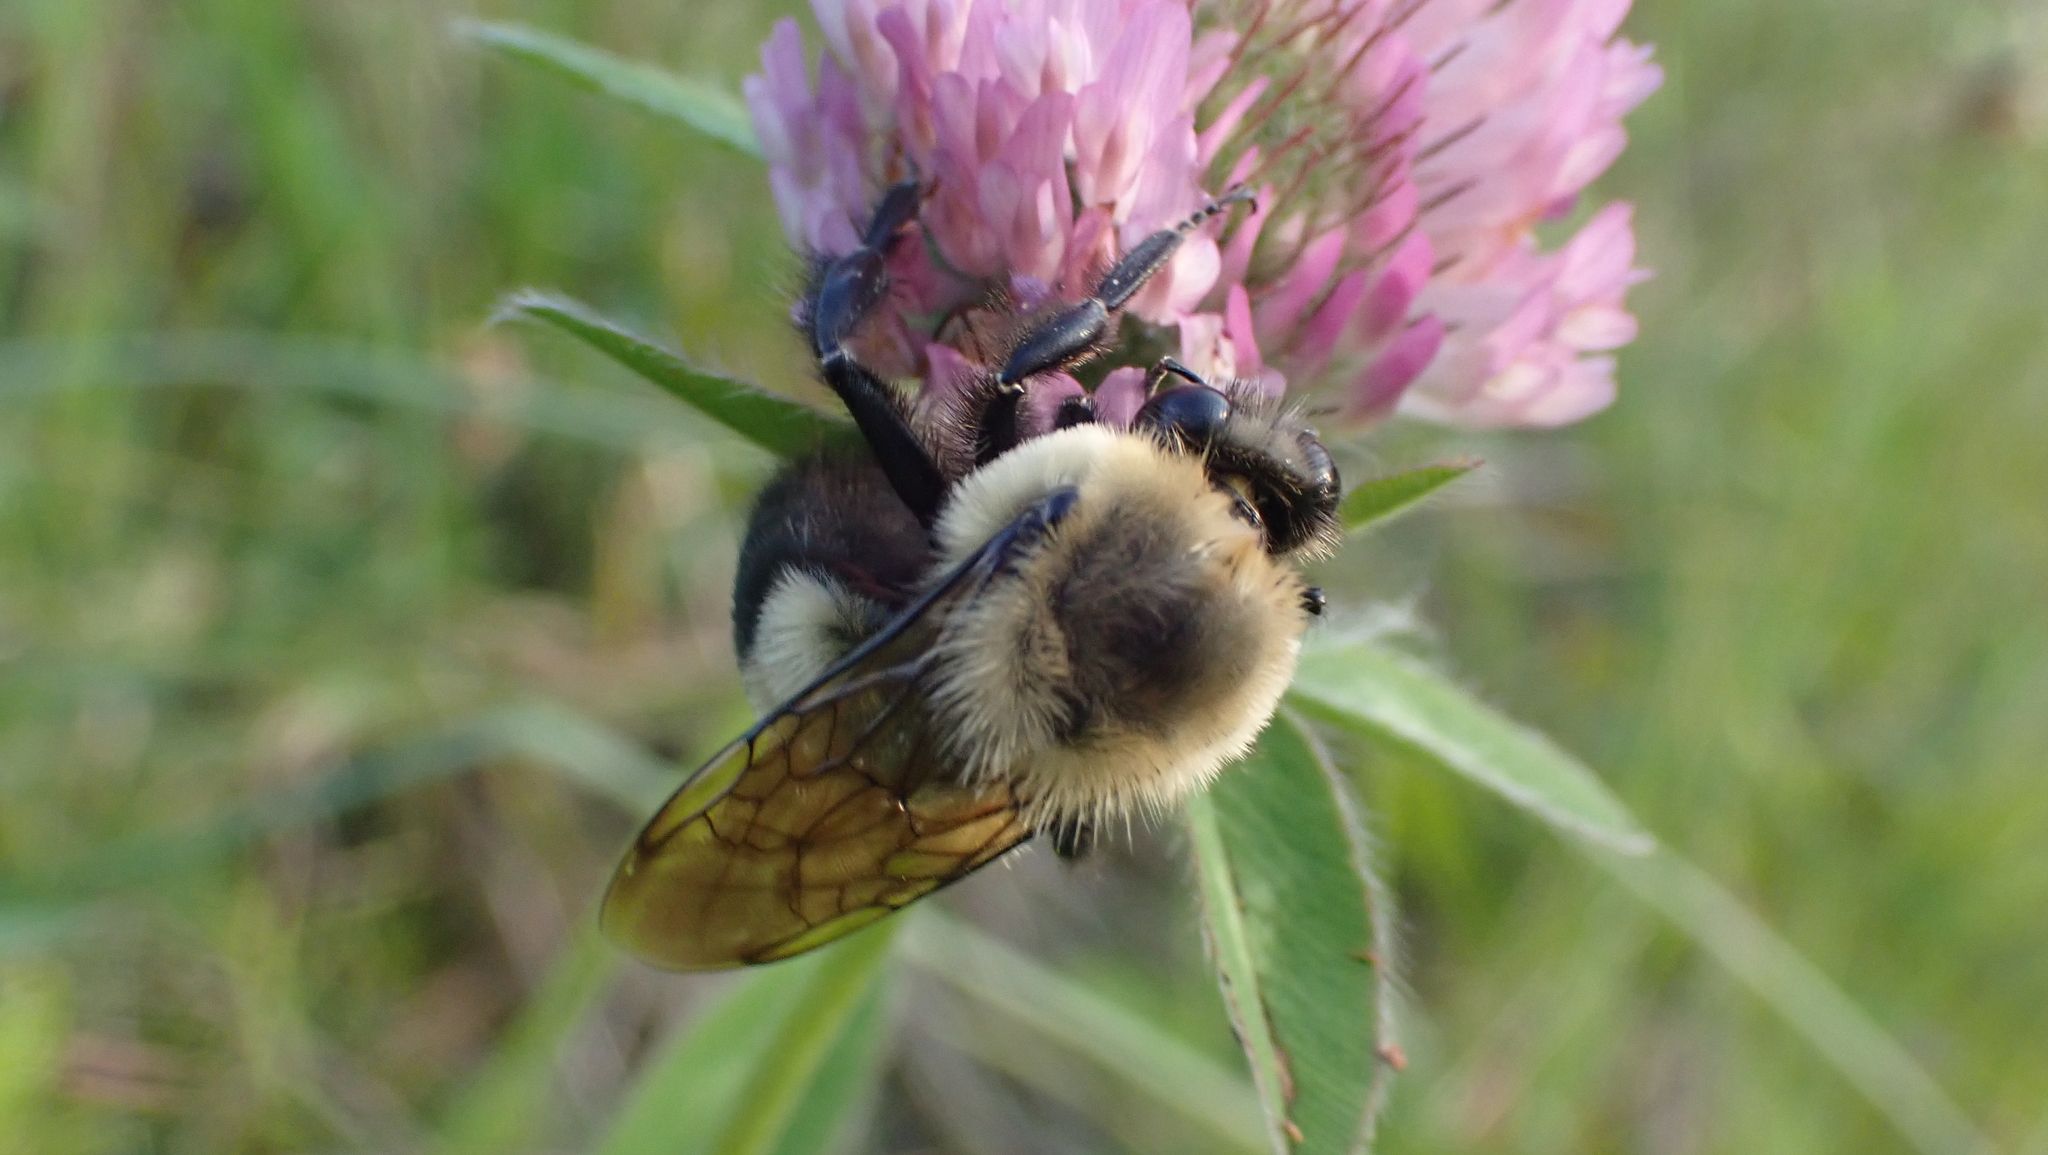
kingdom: Animalia
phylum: Arthropoda
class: Insecta
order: Hymenoptera
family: Apidae
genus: Bombus
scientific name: Bombus griseocollis
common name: Brown-belted bumble bee
